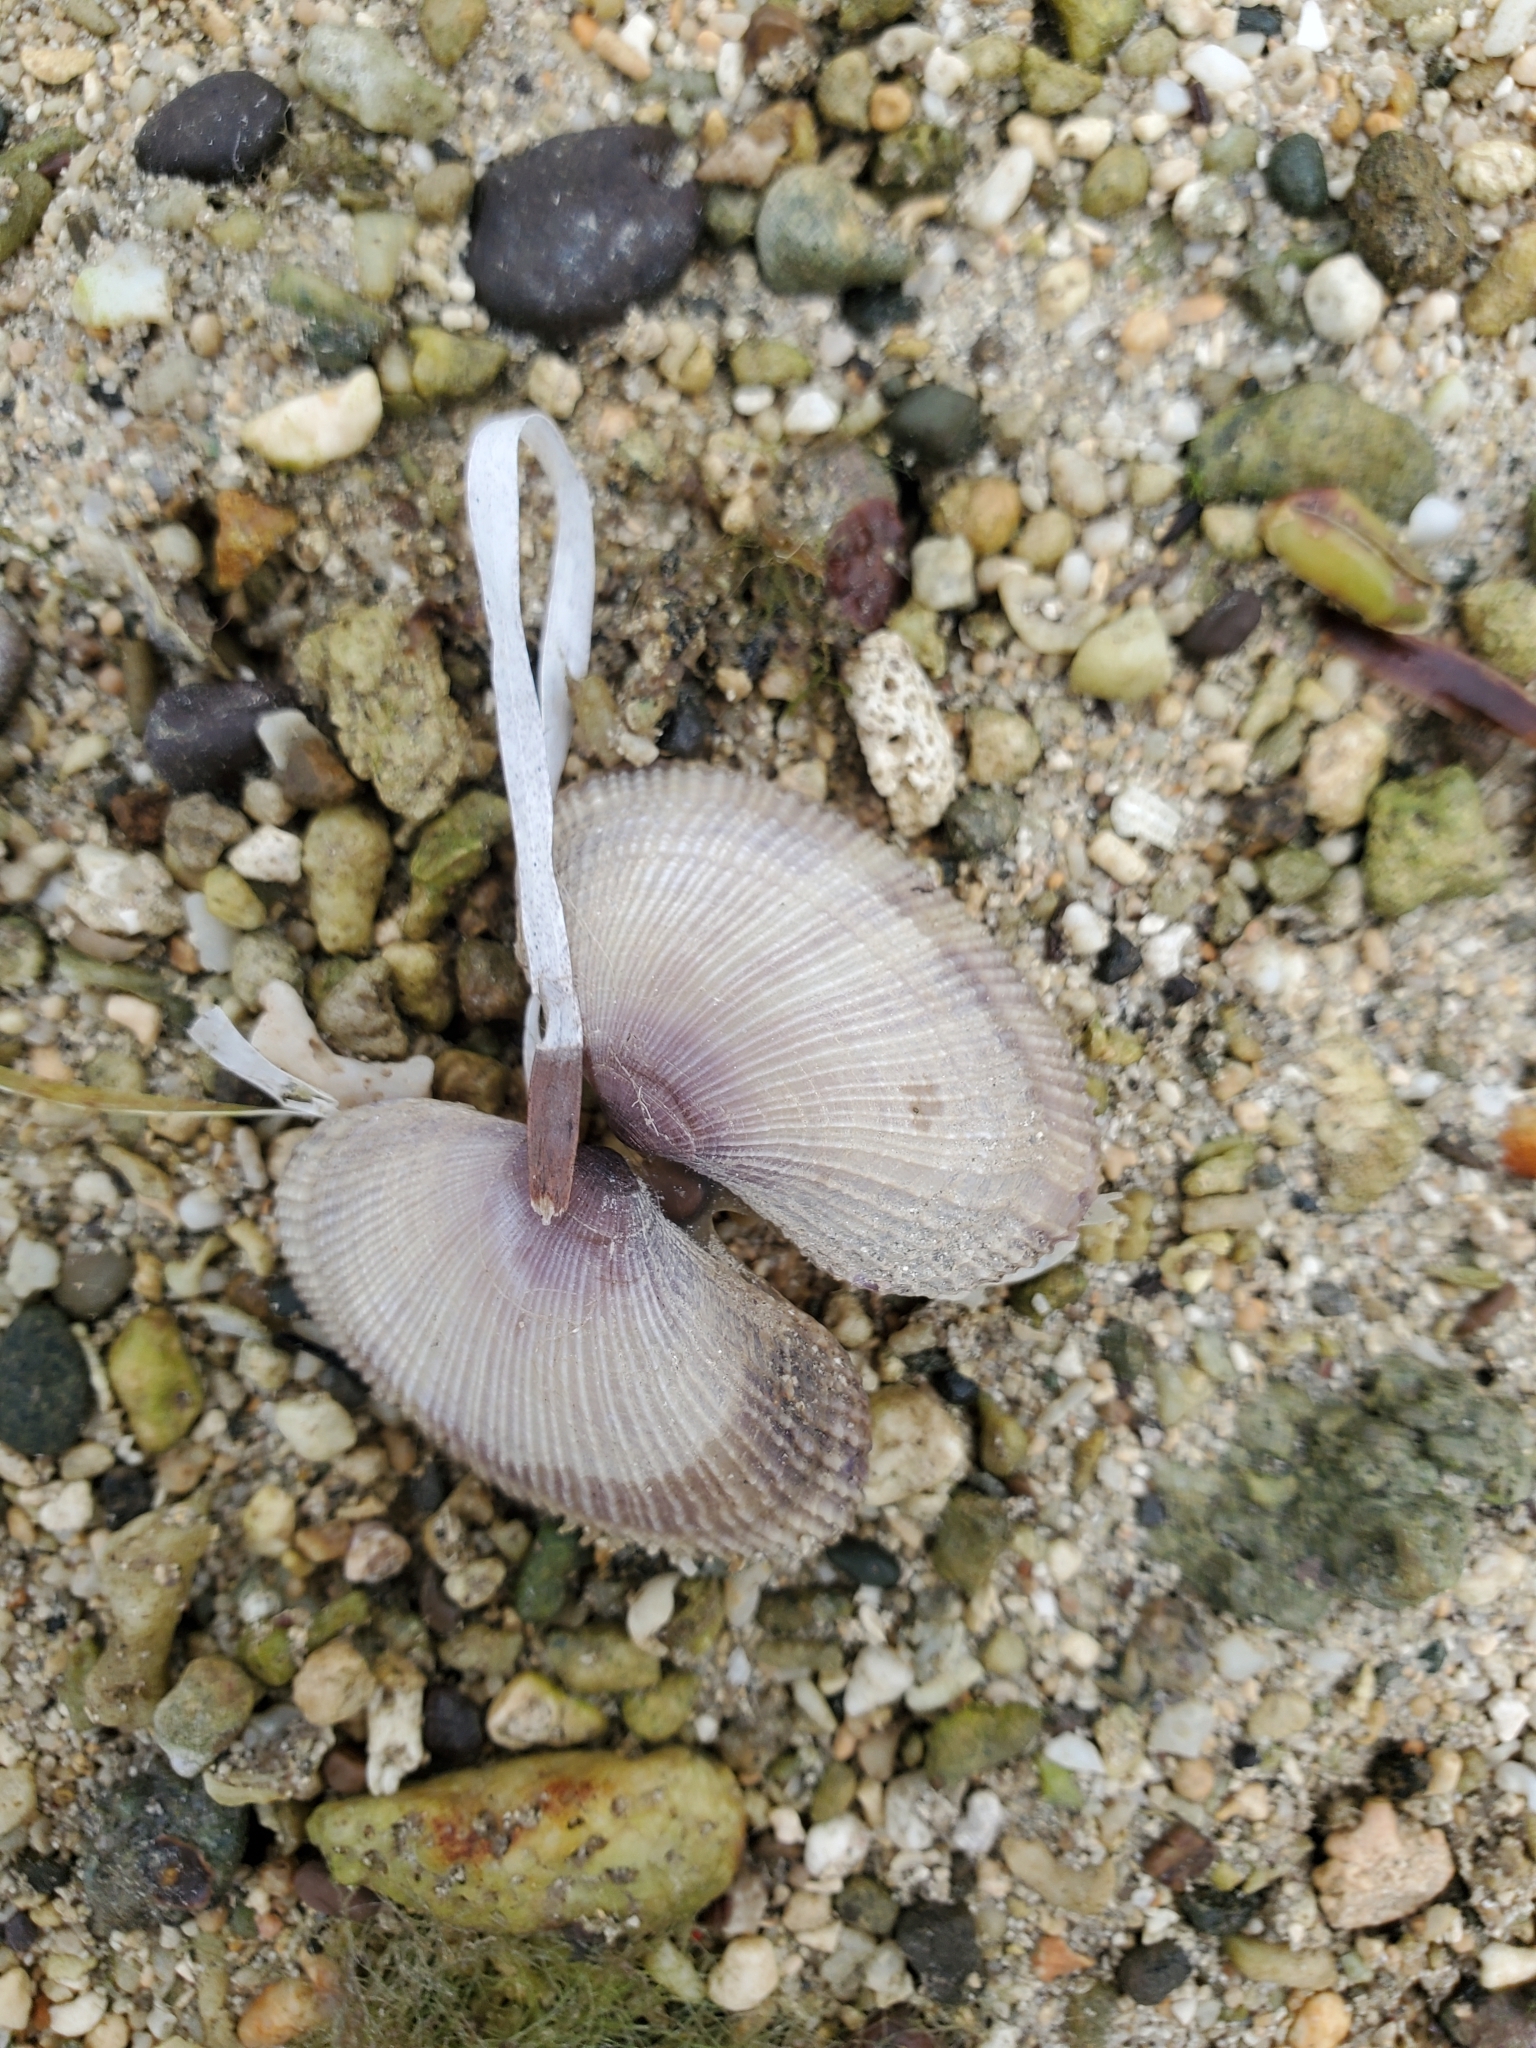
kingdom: Animalia
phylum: Mollusca
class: Bivalvia
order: Cardiida
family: Psammobiidae
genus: Asaphis
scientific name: Asaphis violascens
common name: Pacific asaphis
